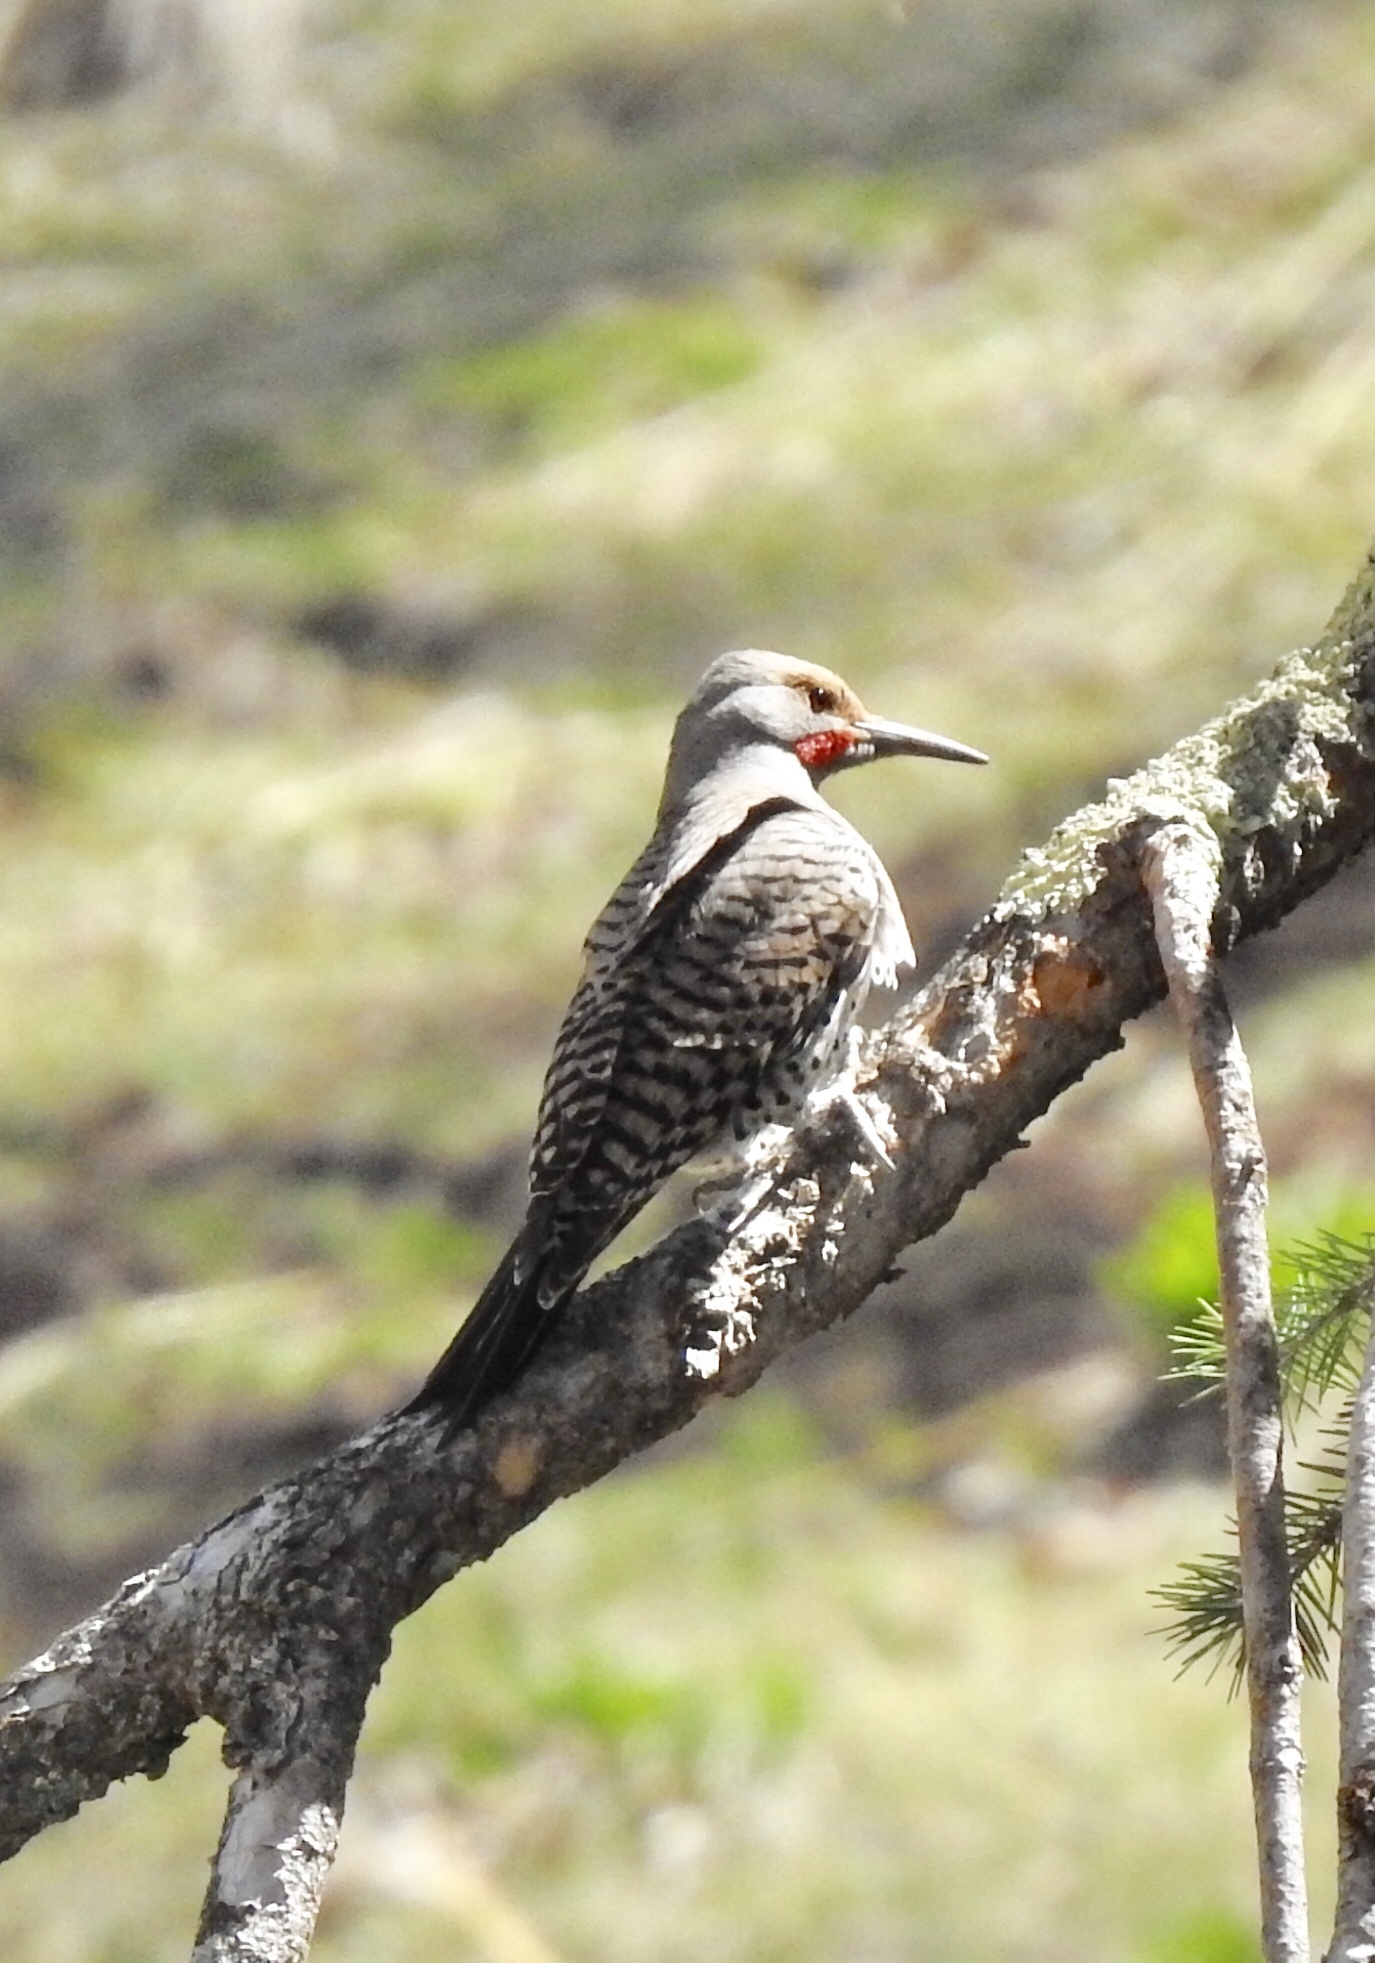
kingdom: Animalia
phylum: Chordata
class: Aves
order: Piciformes
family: Picidae
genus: Colaptes
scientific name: Colaptes auratus
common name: Northern flicker
